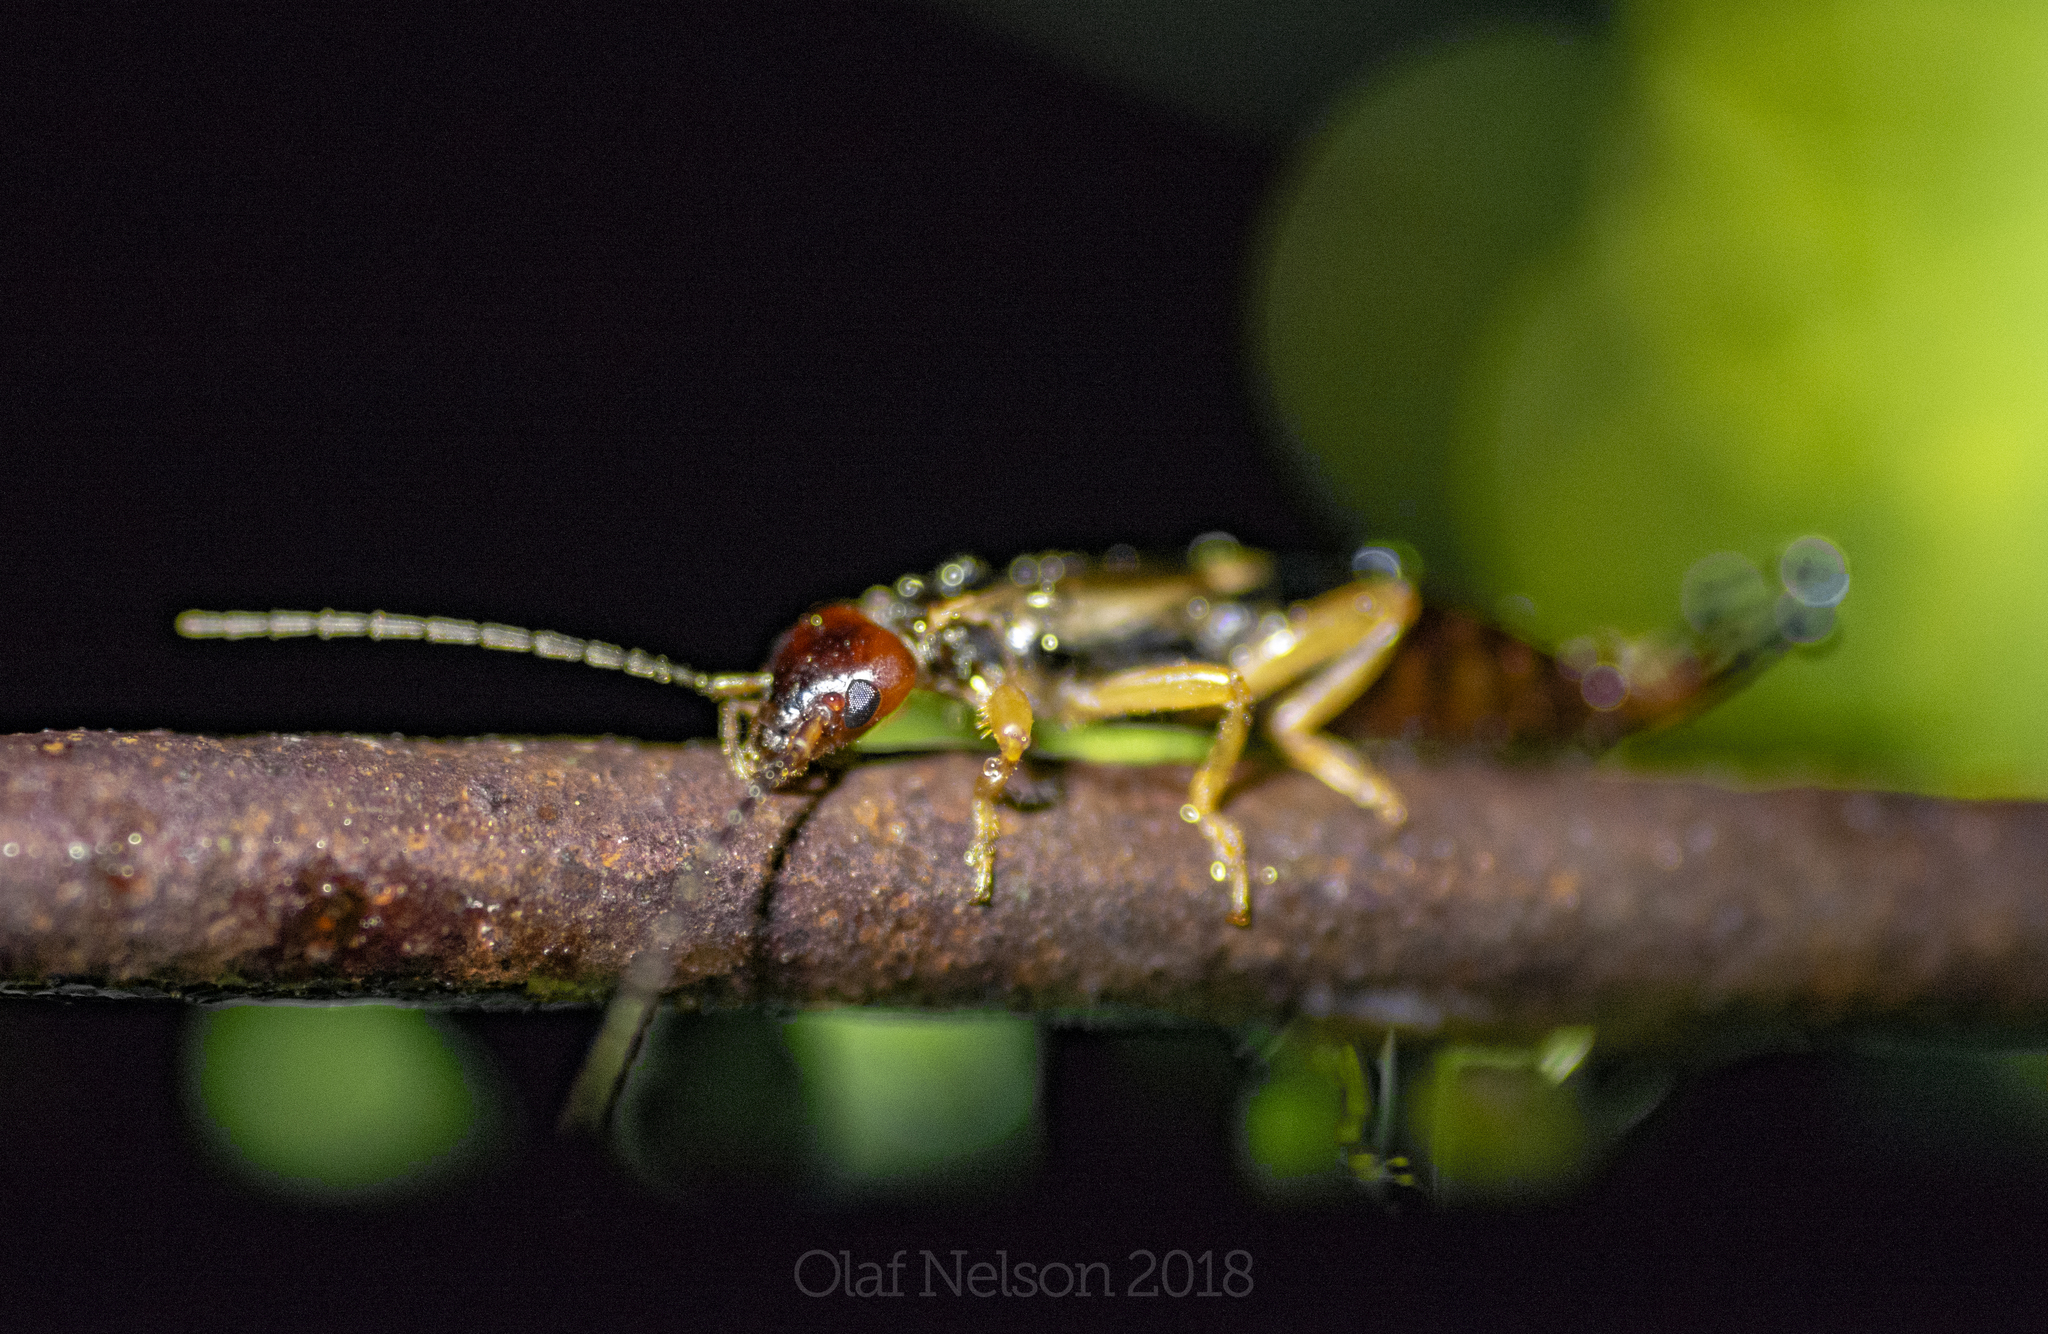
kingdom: Animalia
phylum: Arthropoda
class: Insecta
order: Dermaptera
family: Forficulidae
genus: Forficula
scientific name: Forficula
